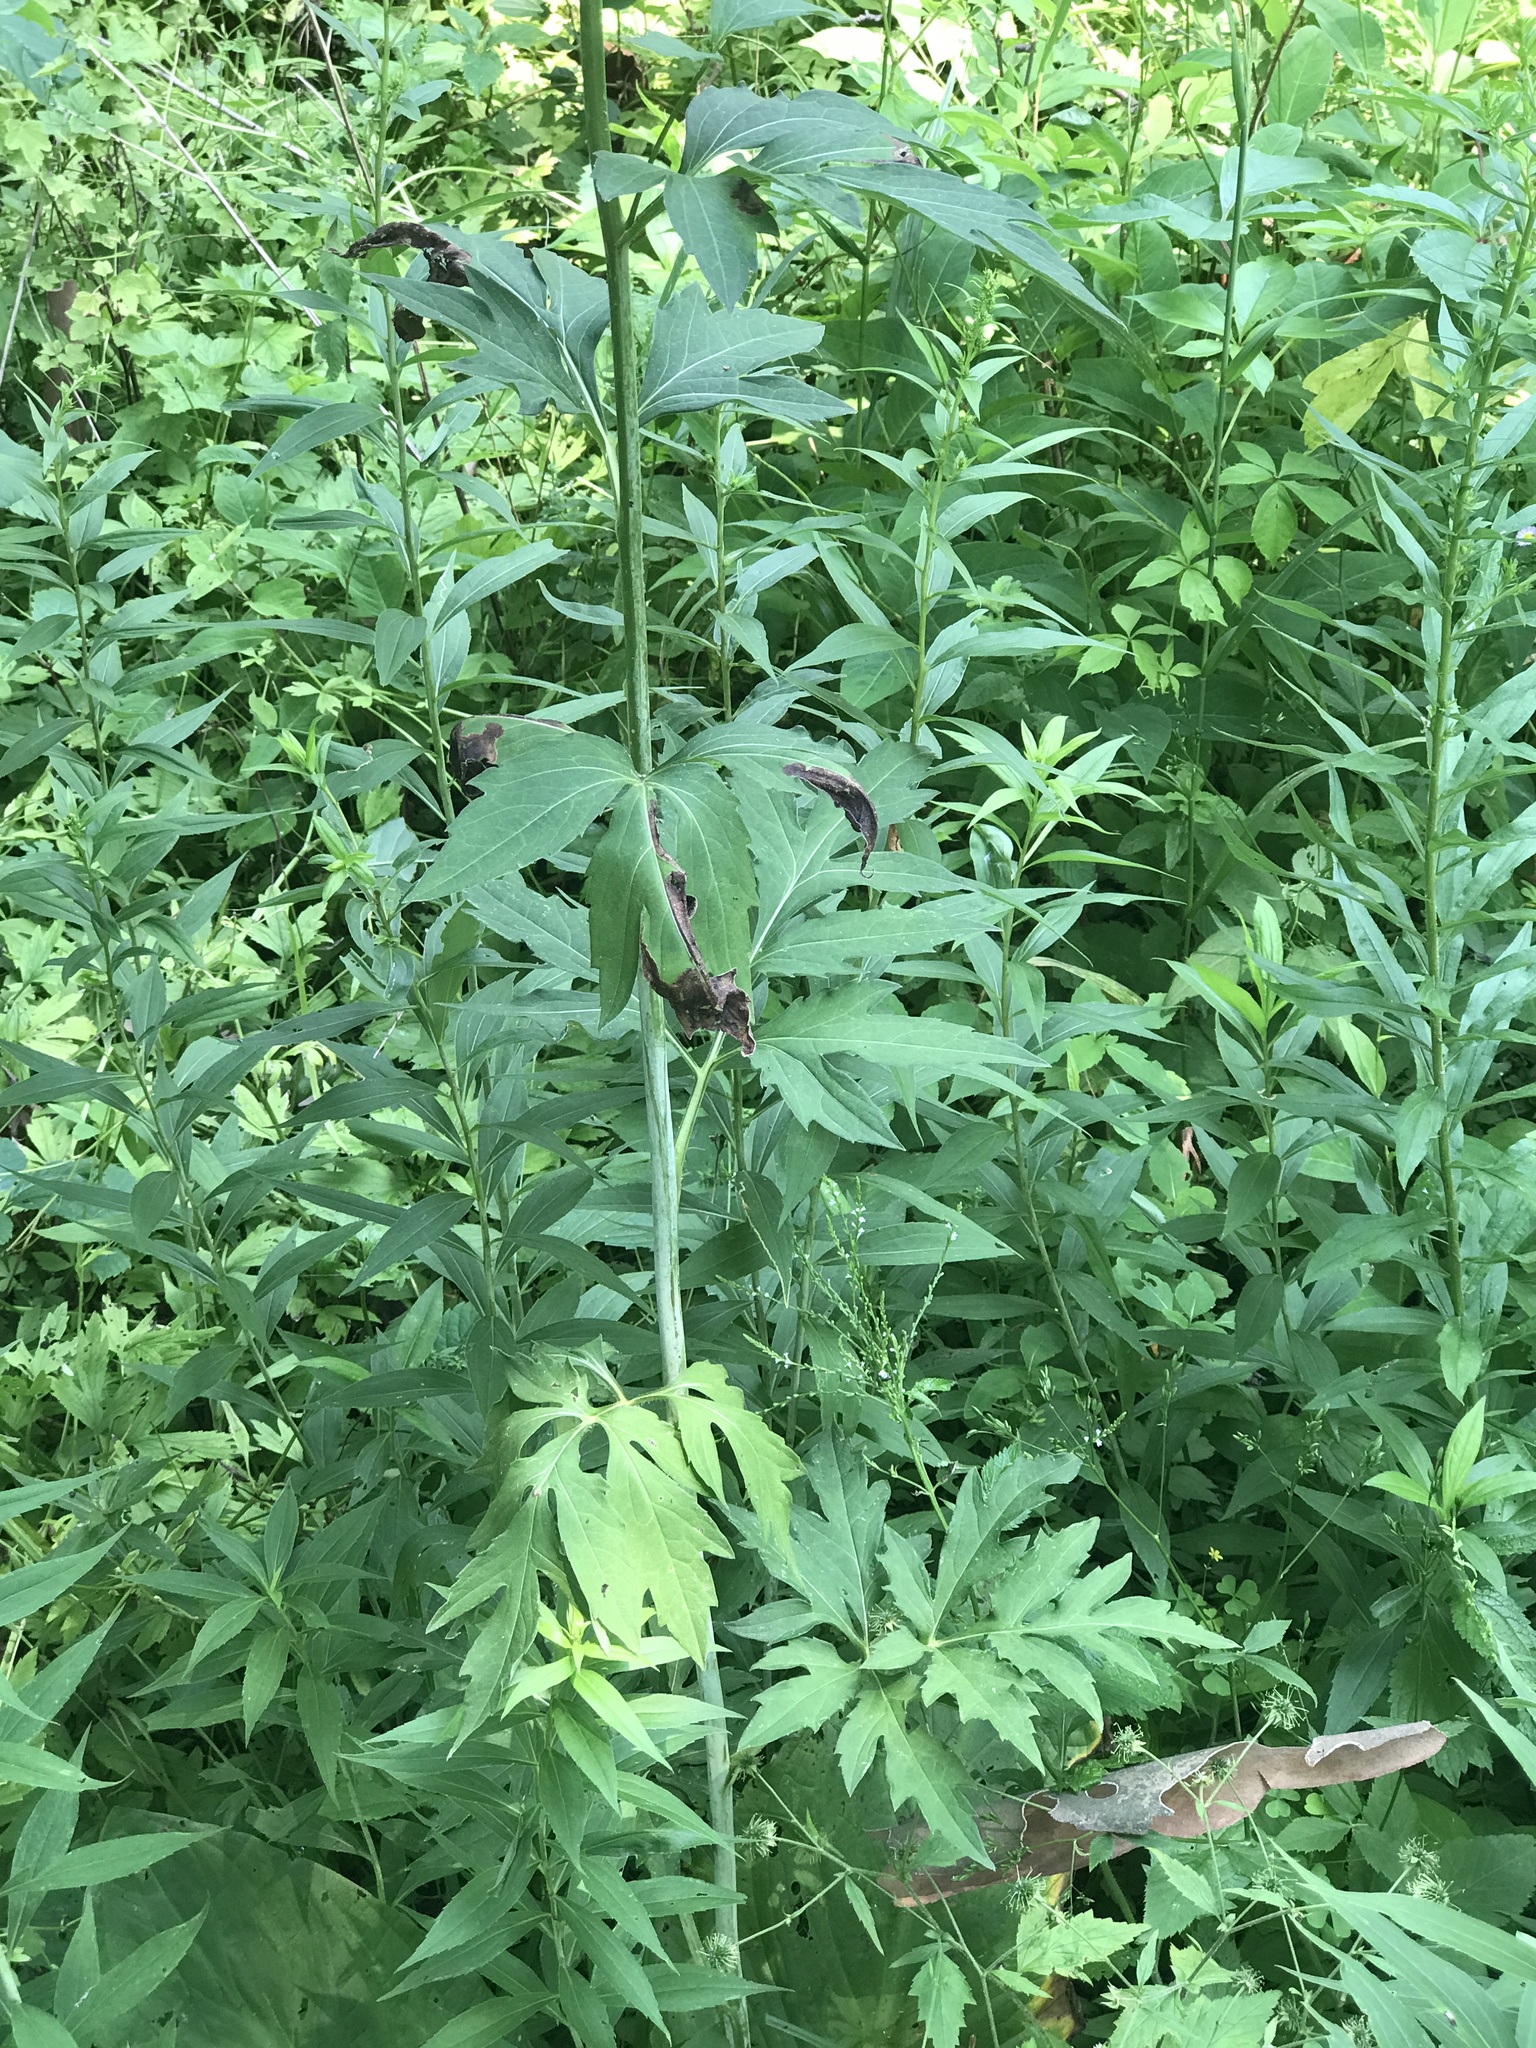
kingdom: Plantae
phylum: Tracheophyta
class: Magnoliopsida
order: Asterales
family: Asteraceae
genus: Rudbeckia
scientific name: Rudbeckia laciniata
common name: Coneflower
